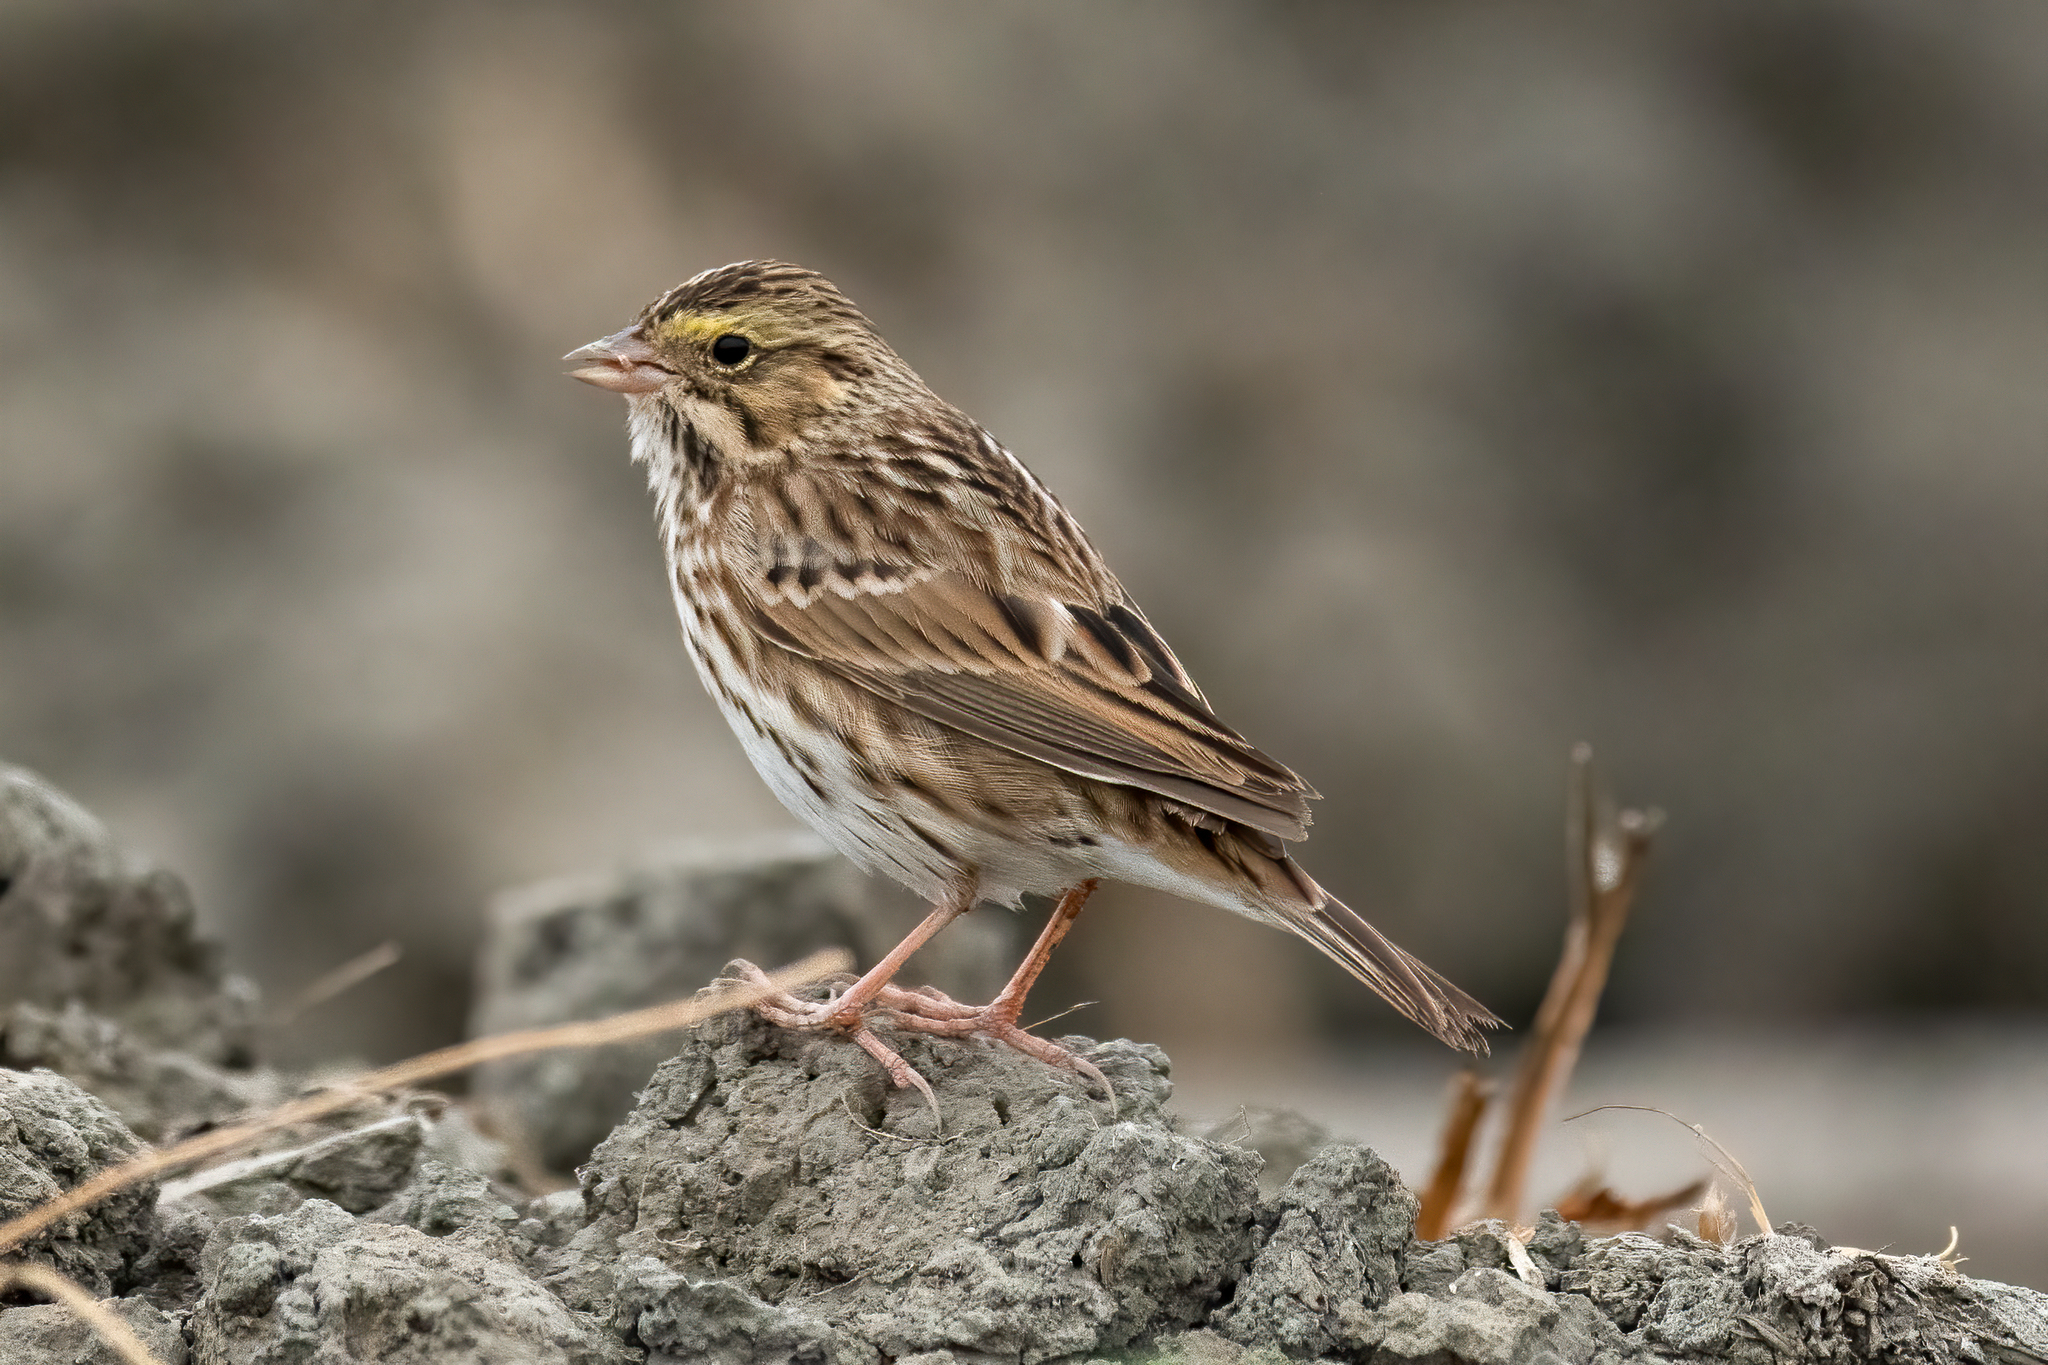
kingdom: Animalia
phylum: Chordata
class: Aves
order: Passeriformes
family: Passerellidae
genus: Passerculus
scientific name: Passerculus sandwichensis
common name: Savannah sparrow
